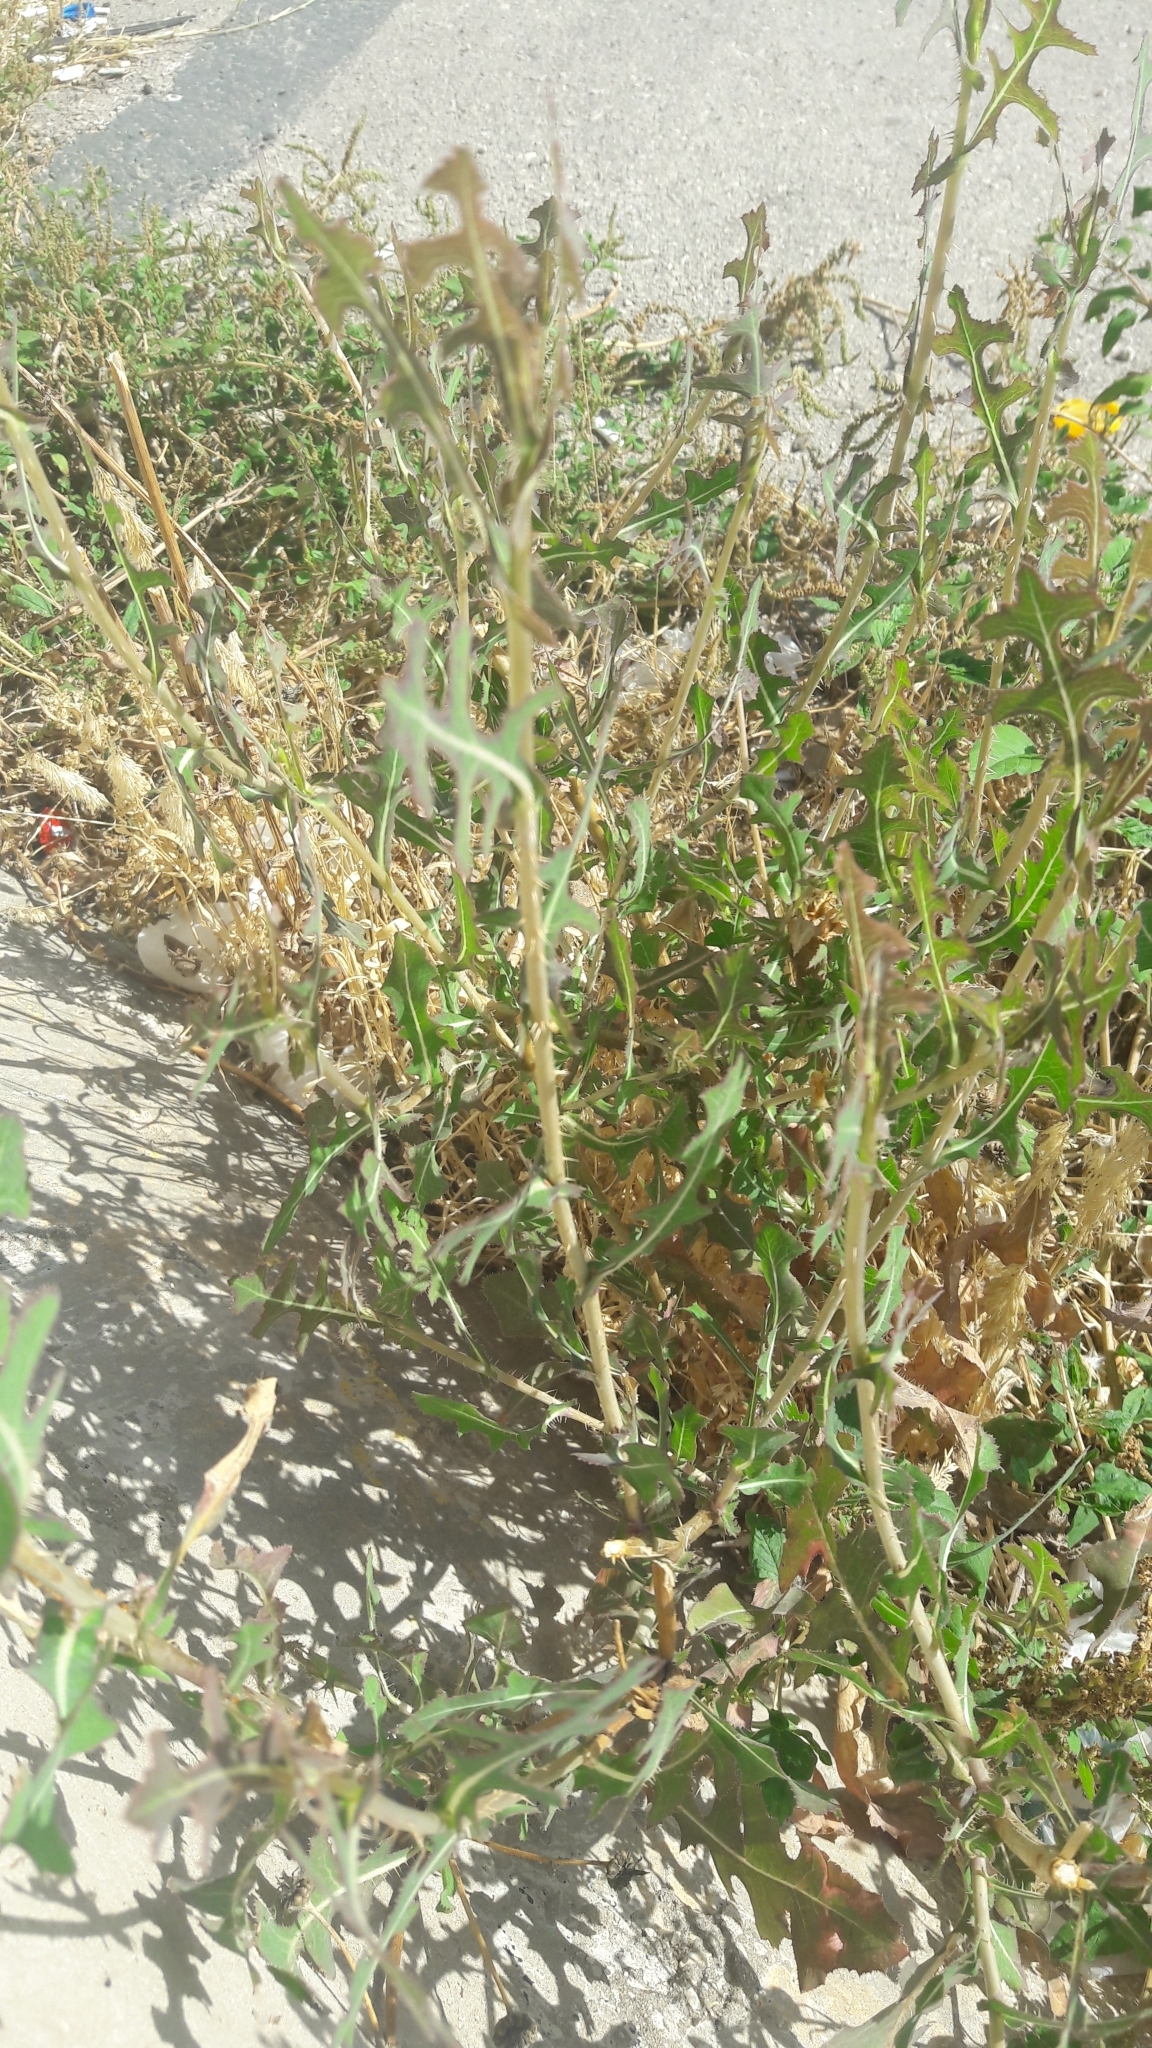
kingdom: Plantae
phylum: Tracheophyta
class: Magnoliopsida
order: Asterales
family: Asteraceae
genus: Lactuca
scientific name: Lactuca serriola
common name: Prickly lettuce
